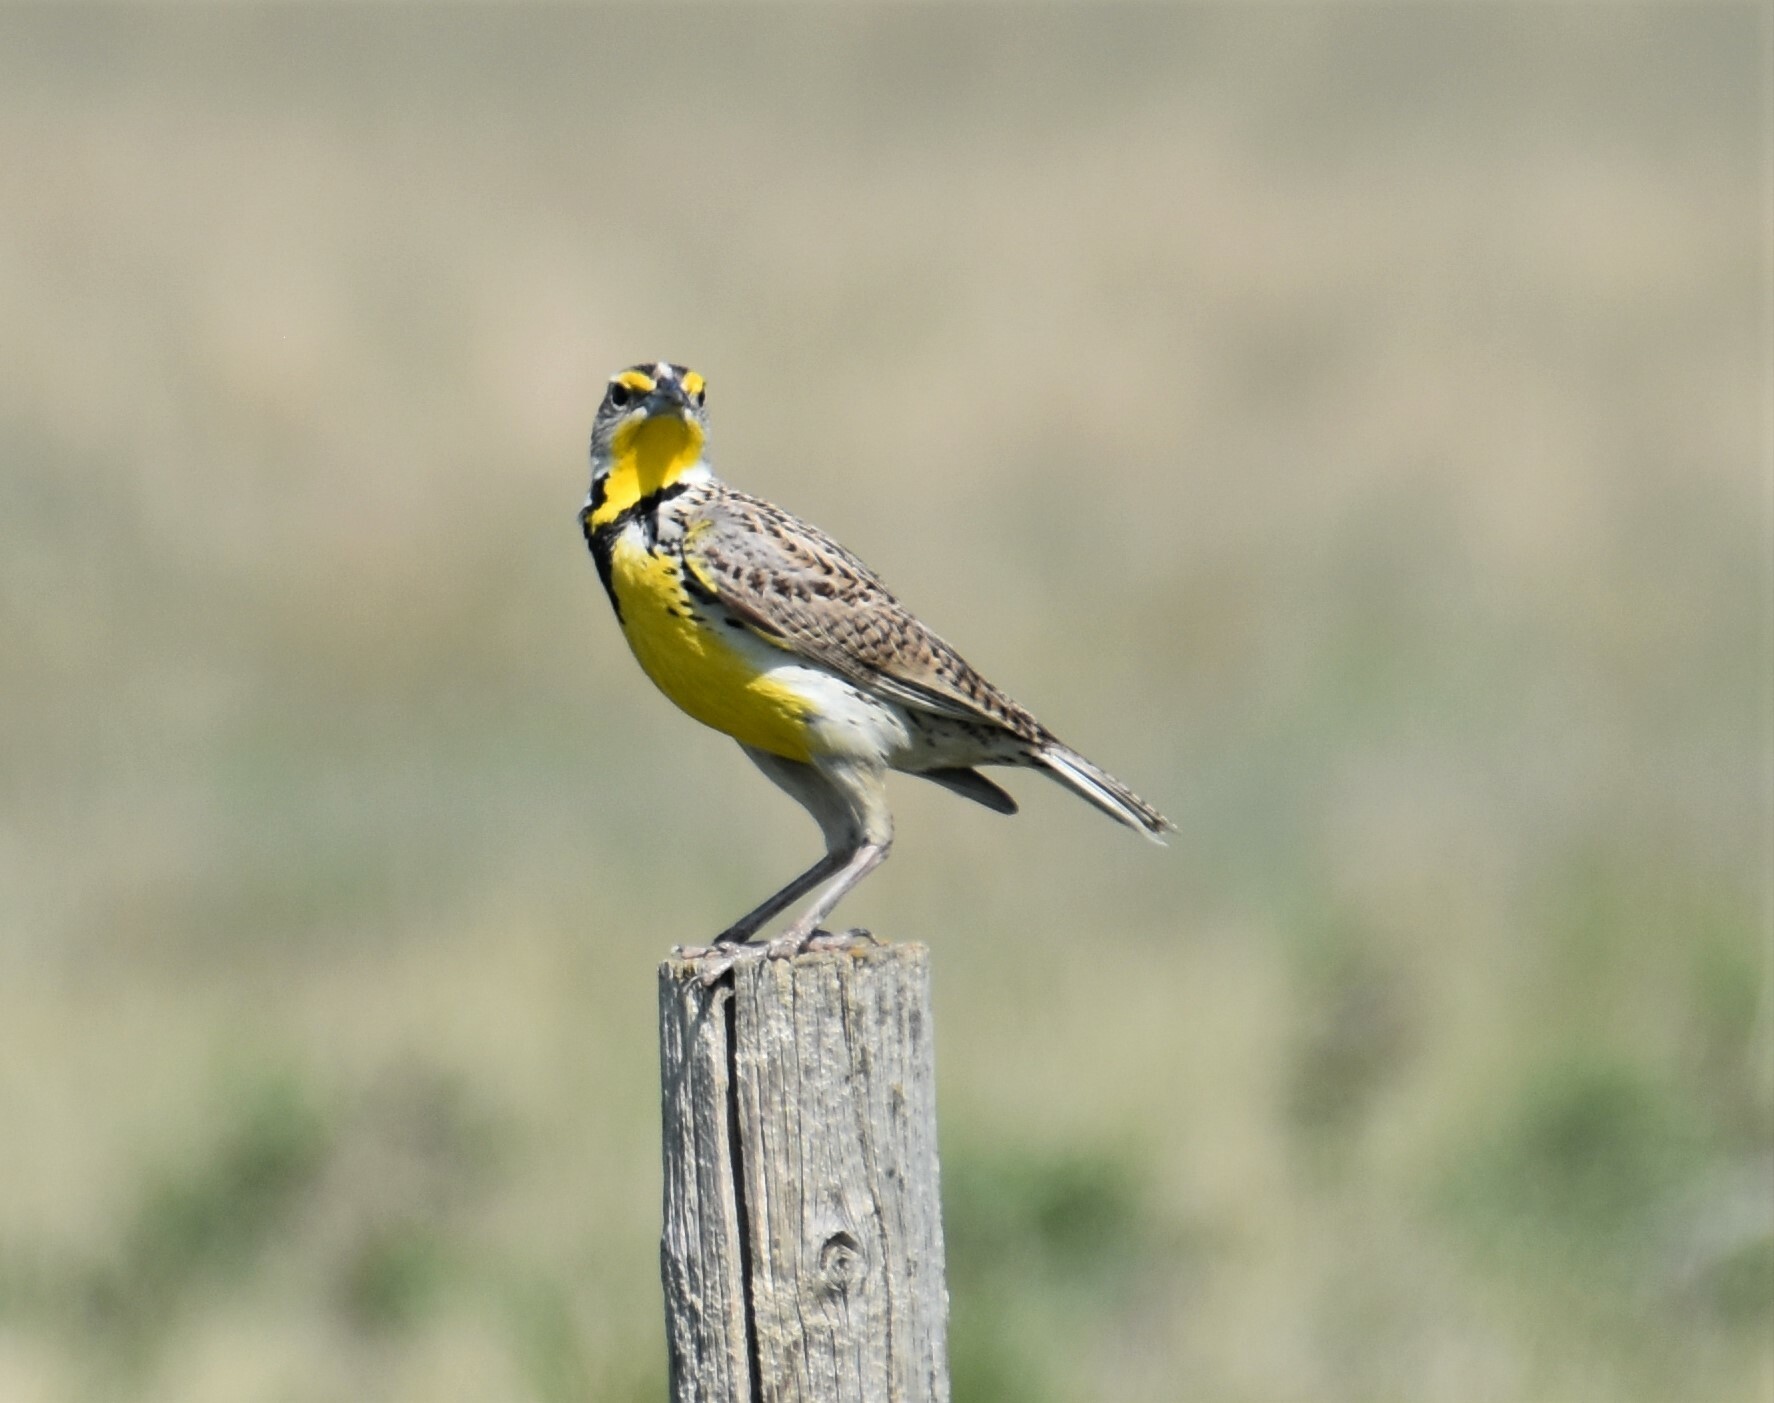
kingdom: Animalia
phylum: Chordata
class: Aves
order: Passeriformes
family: Icteridae
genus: Sturnella
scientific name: Sturnella neglecta
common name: Western meadowlark
